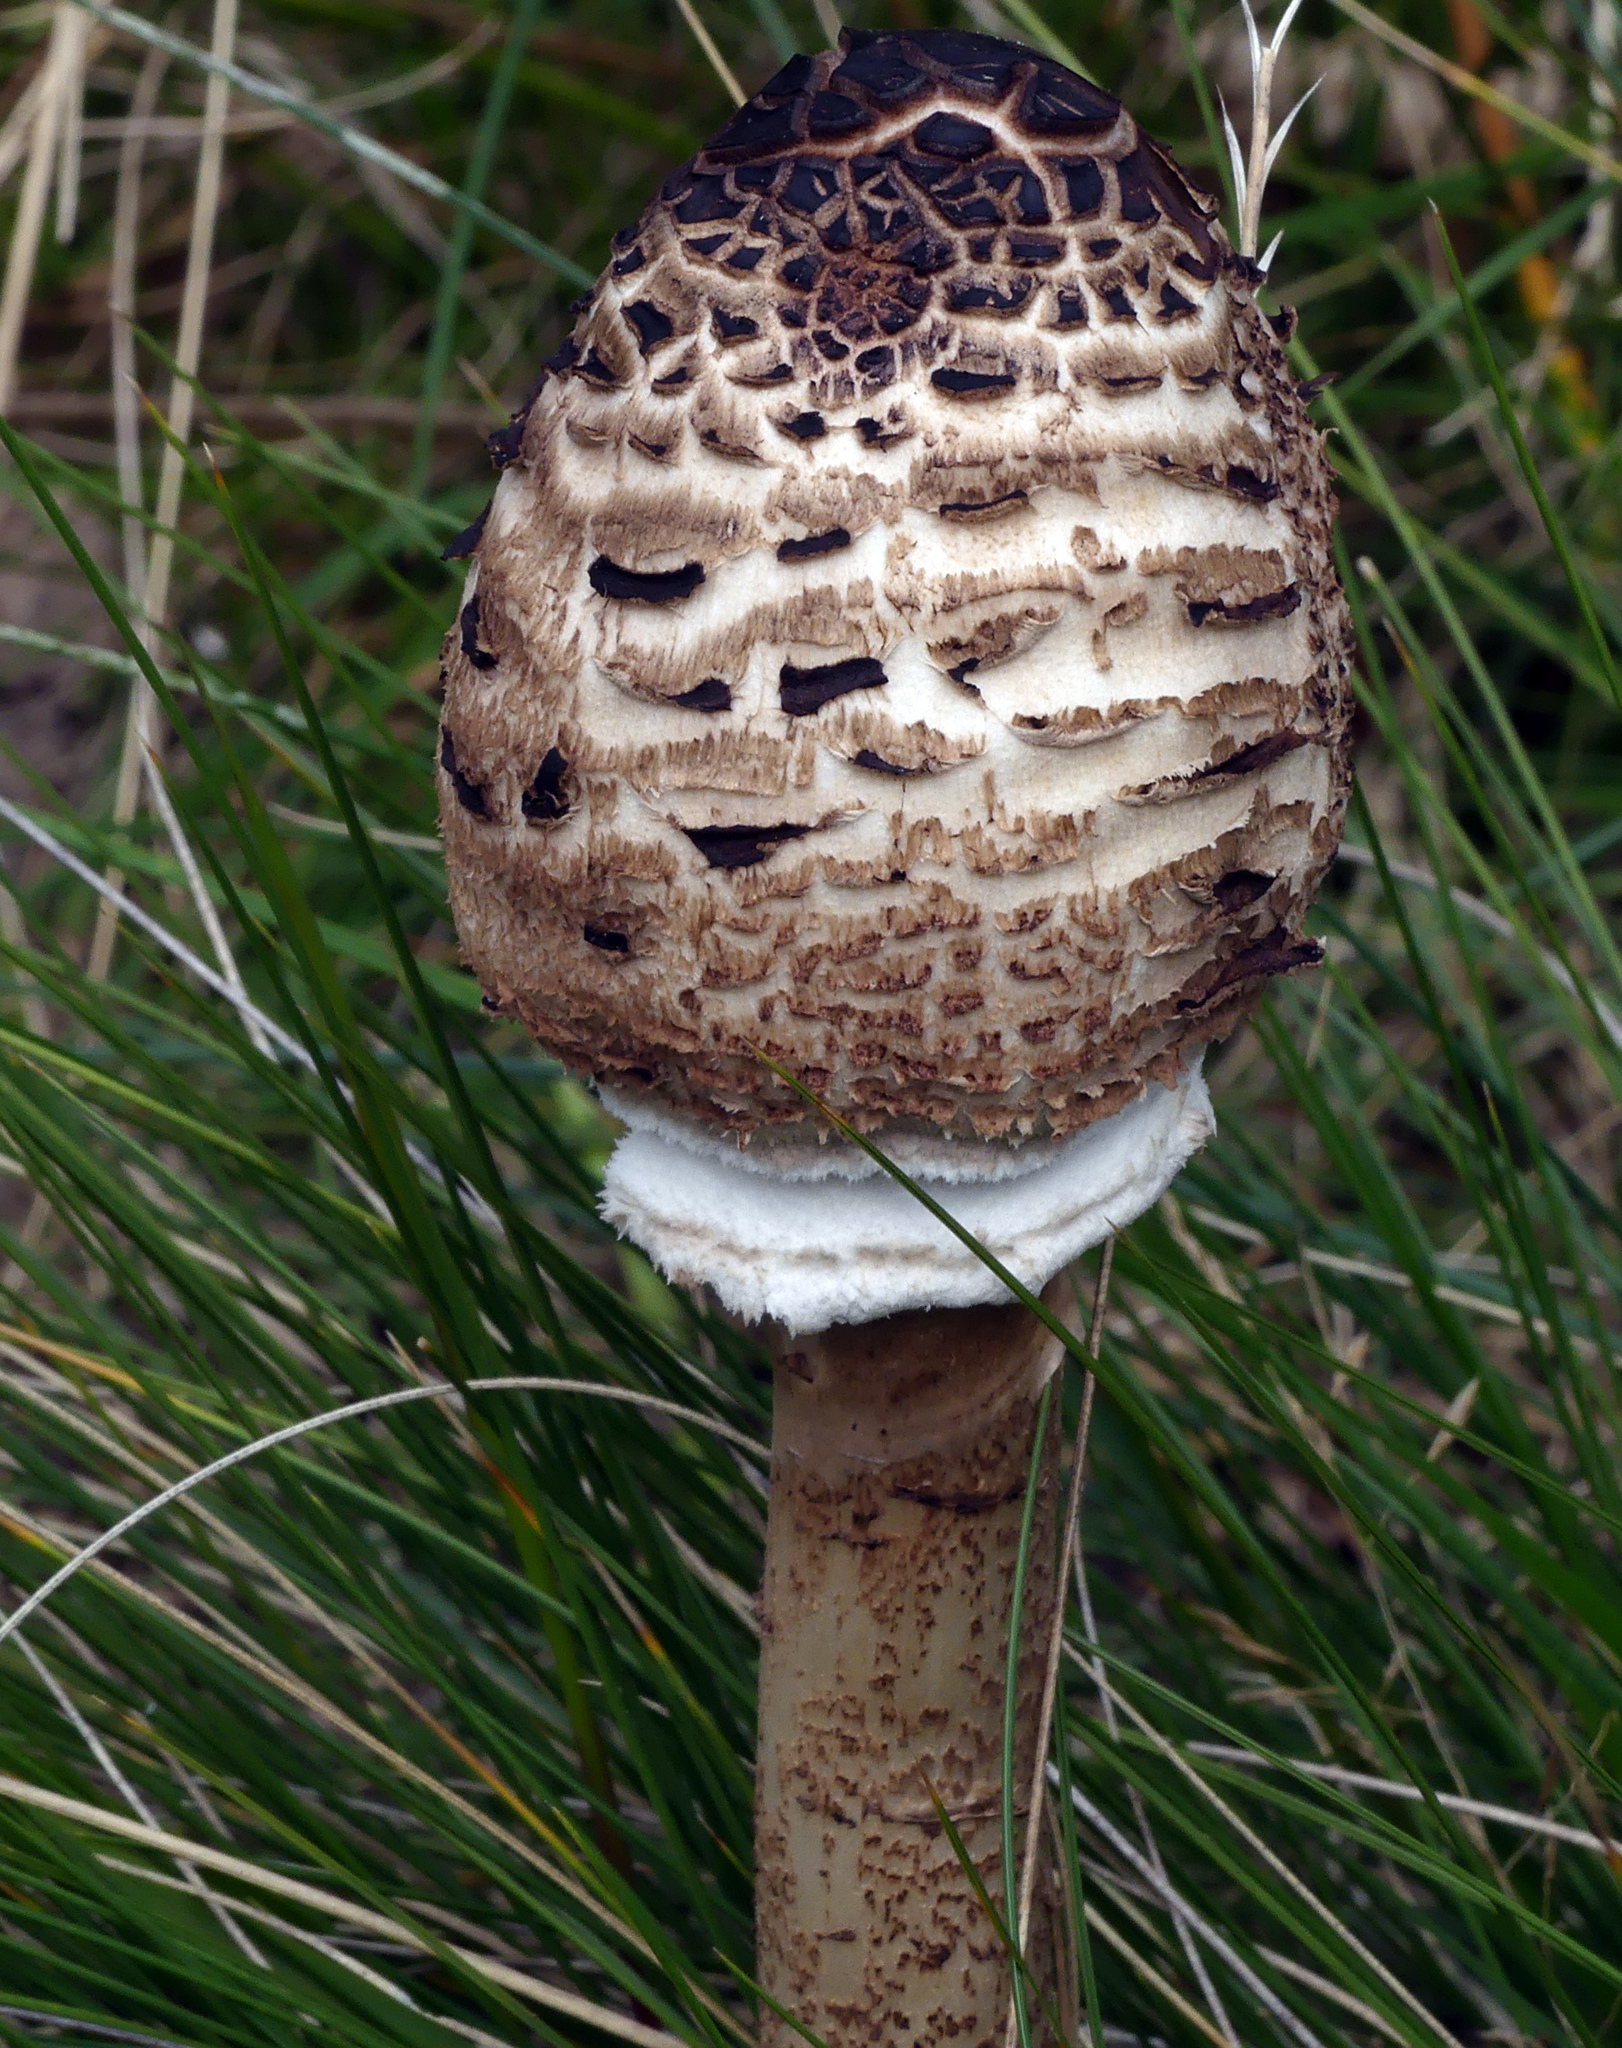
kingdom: Fungi
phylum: Basidiomycota
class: Agaricomycetes
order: Agaricales
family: Agaricaceae
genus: Macrolepiota
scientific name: Macrolepiota procera
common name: Parasol
